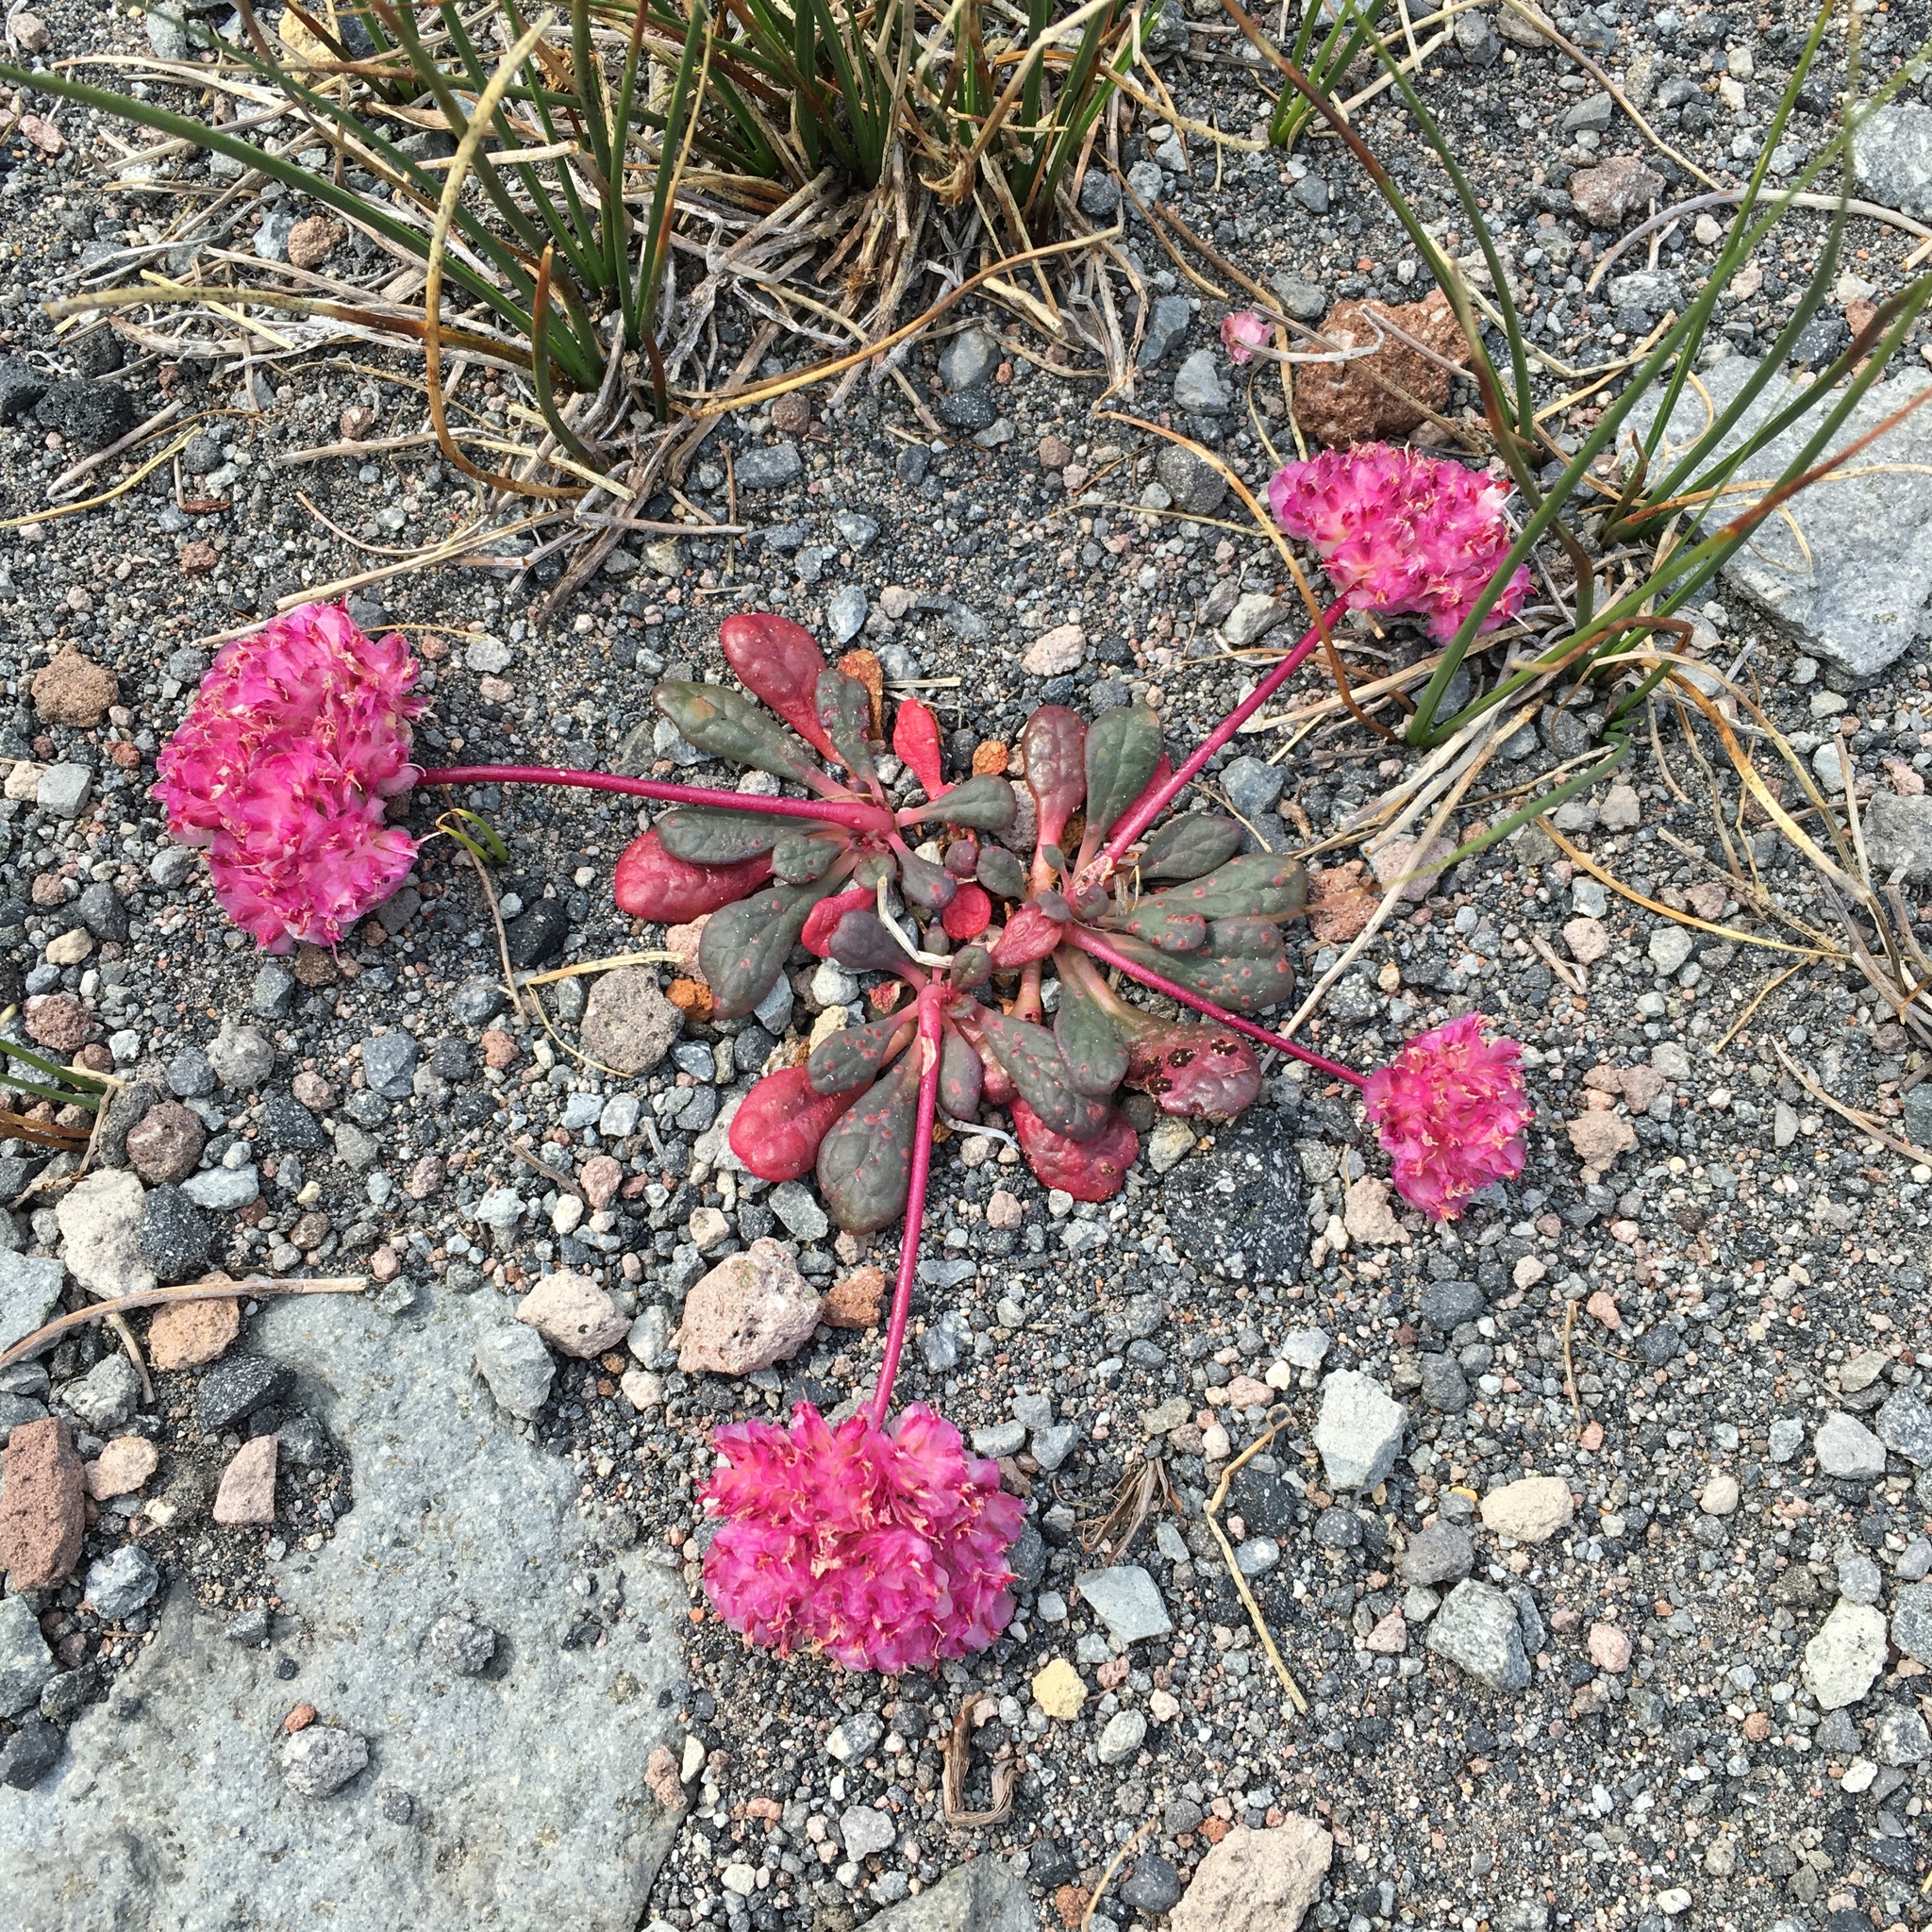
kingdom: Plantae
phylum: Tracheophyta
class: Magnoliopsida
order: Caryophyllales
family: Montiaceae
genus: Calyptridium
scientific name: Calyptridium umbellatum
